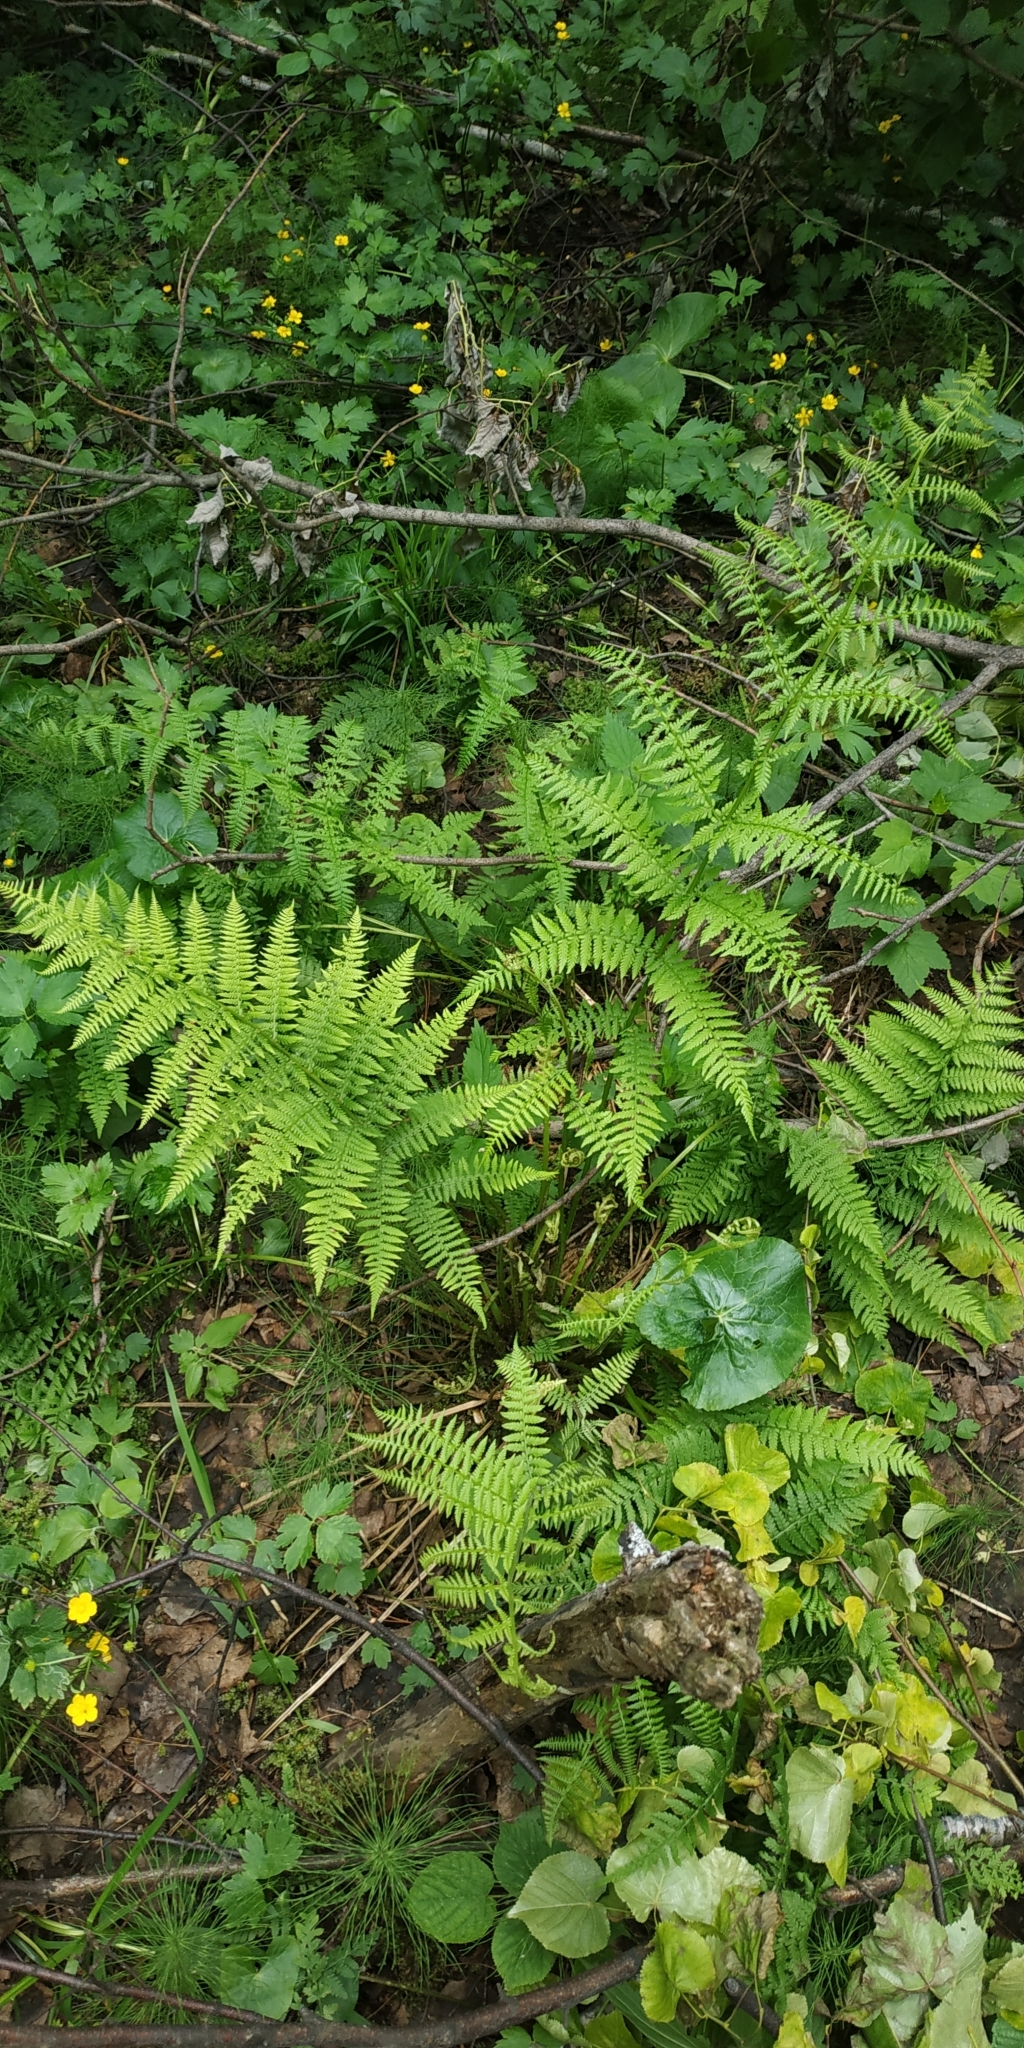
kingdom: Plantae
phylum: Tracheophyta
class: Polypodiopsida
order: Polypodiales
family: Athyriaceae
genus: Athyrium
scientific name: Athyrium filix-femina
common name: Lady fern
